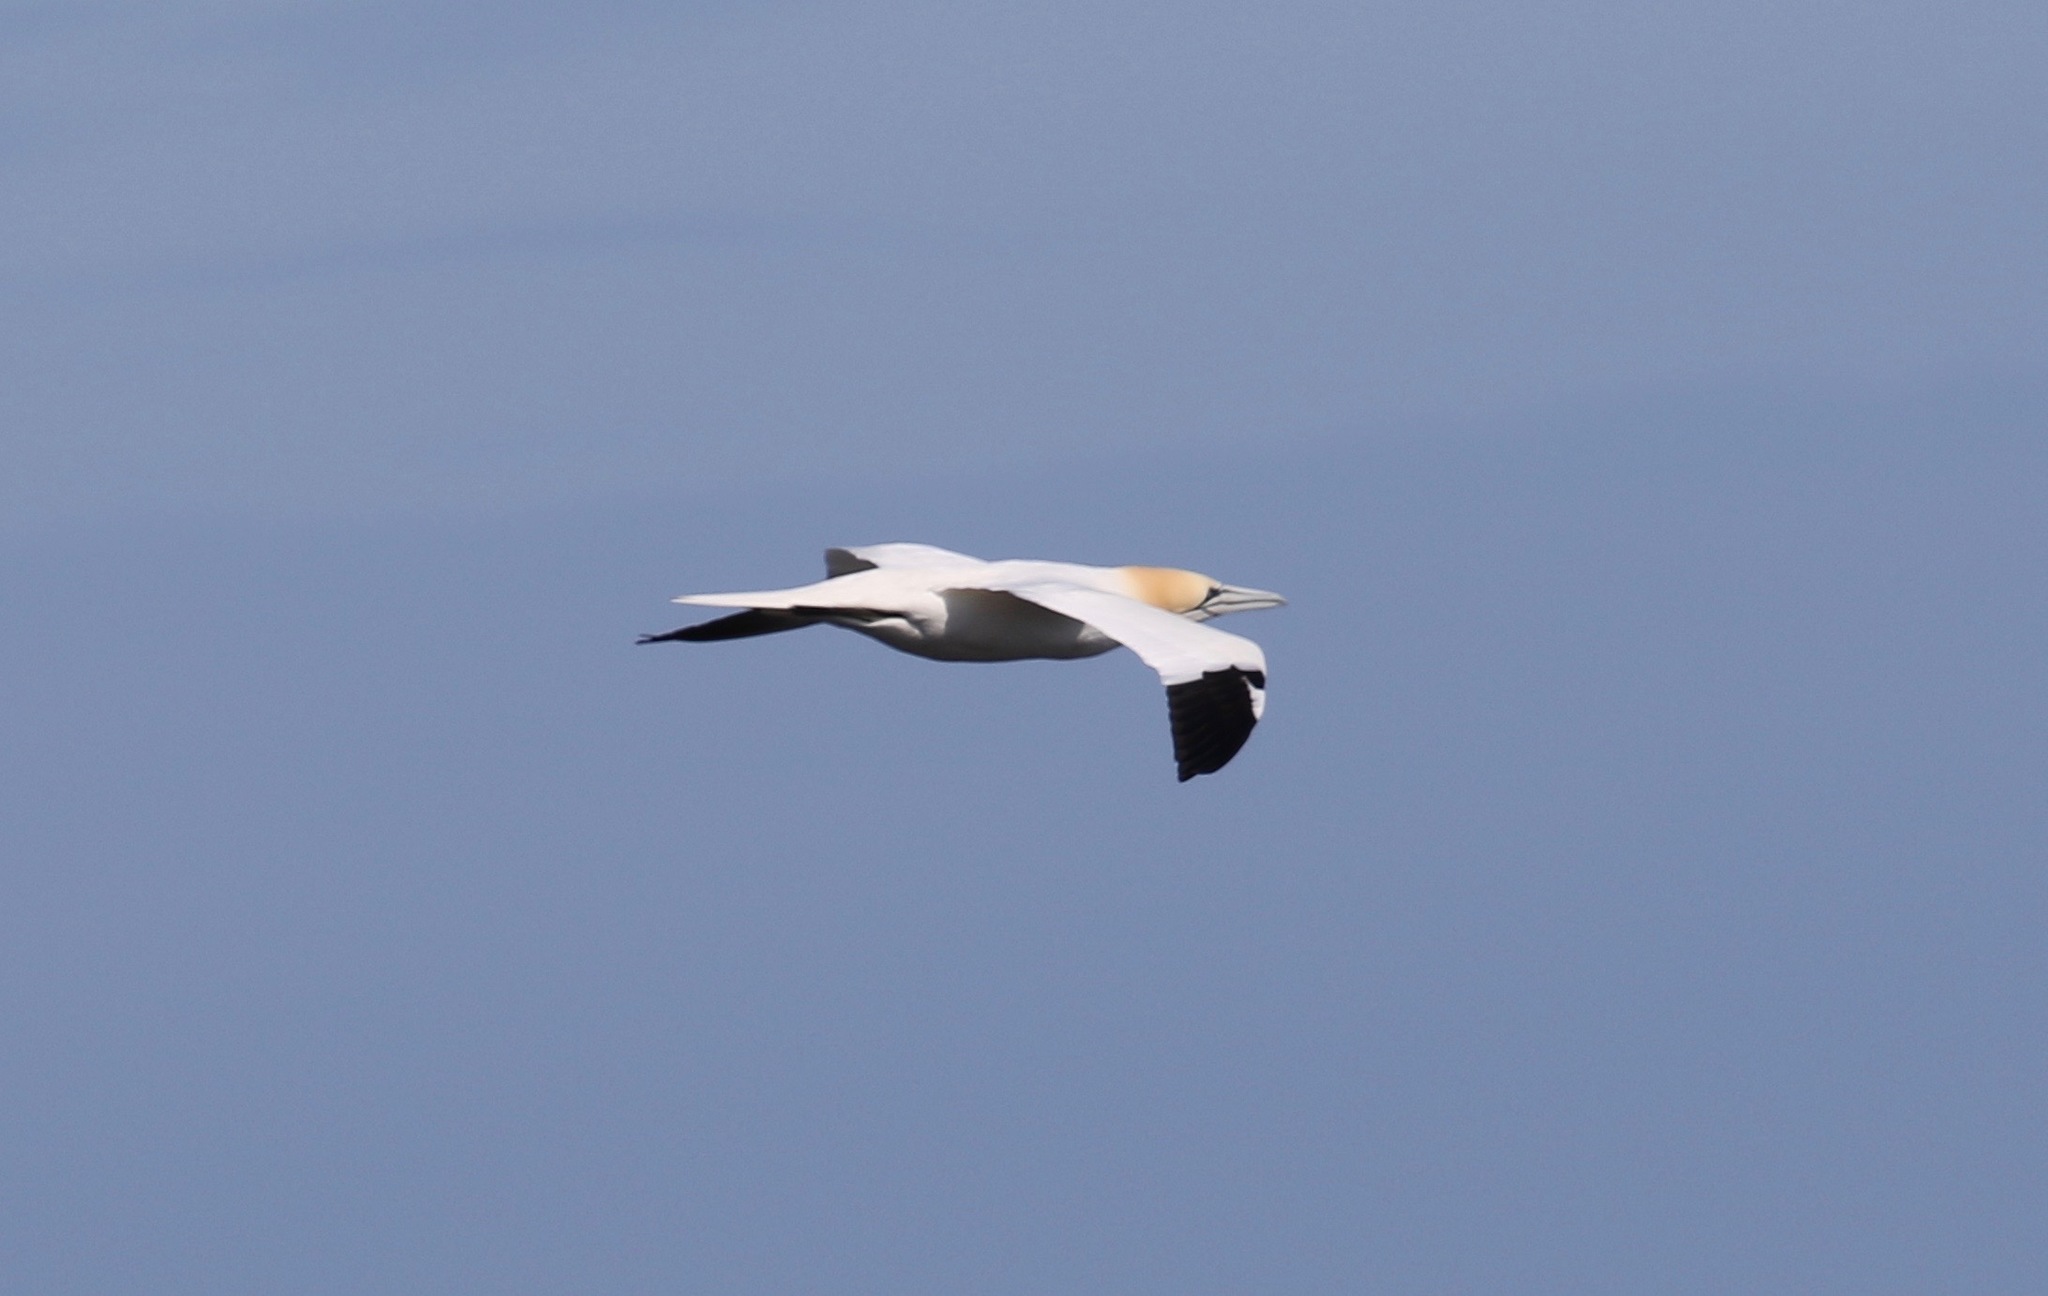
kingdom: Animalia
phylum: Chordata
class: Aves
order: Suliformes
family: Sulidae
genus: Morus
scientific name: Morus bassanus
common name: Northern gannet
